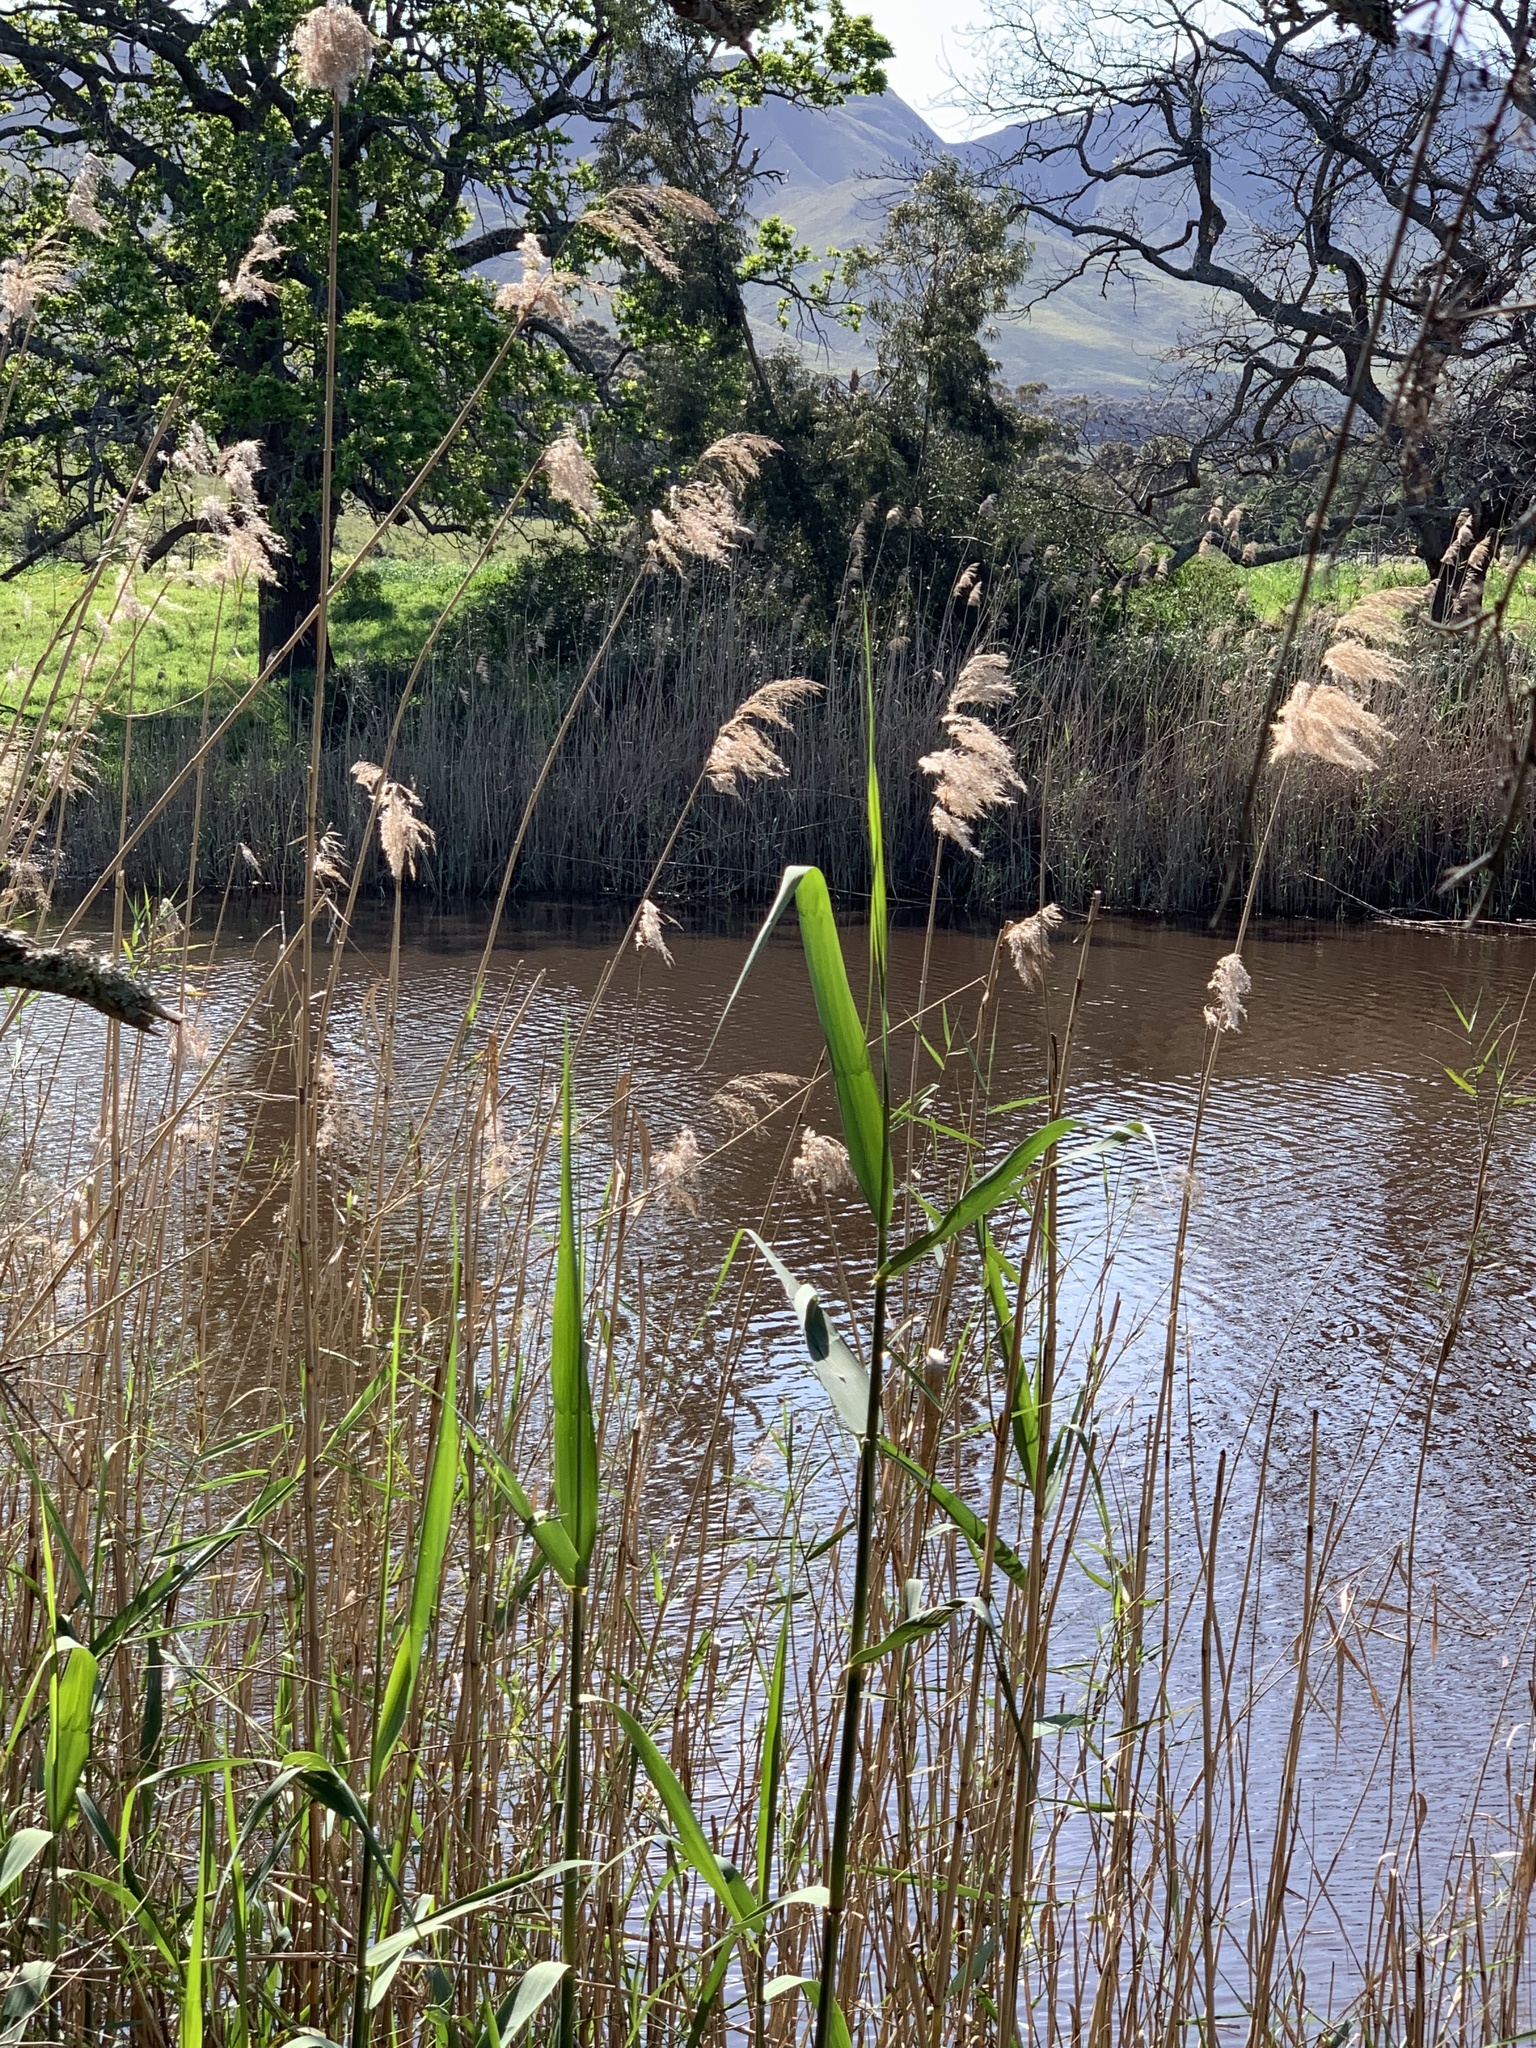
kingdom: Plantae
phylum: Tracheophyta
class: Liliopsida
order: Poales
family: Poaceae
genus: Phragmites
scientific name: Phragmites australis
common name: Common reed
